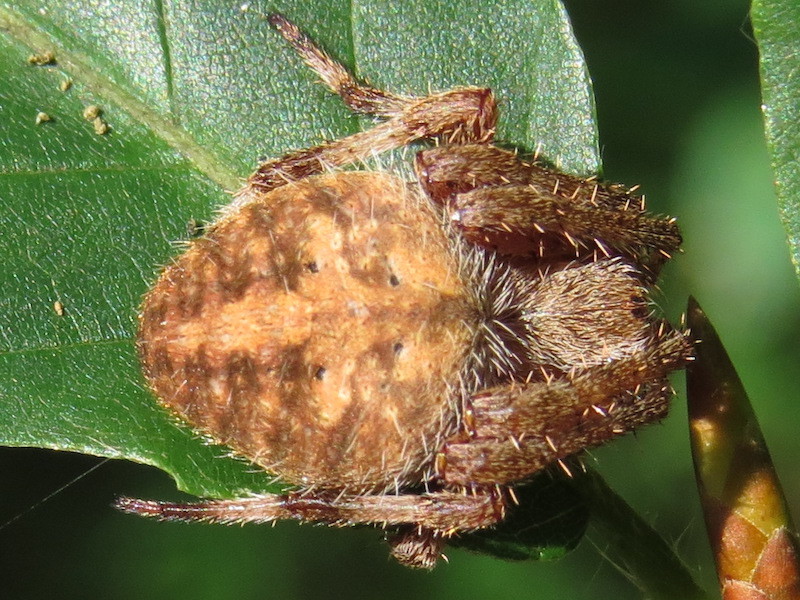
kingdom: Animalia
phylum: Arthropoda
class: Arachnida
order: Araneae
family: Araneidae
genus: Neoscona
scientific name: Neoscona crucifera
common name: Spotted orbweaver
